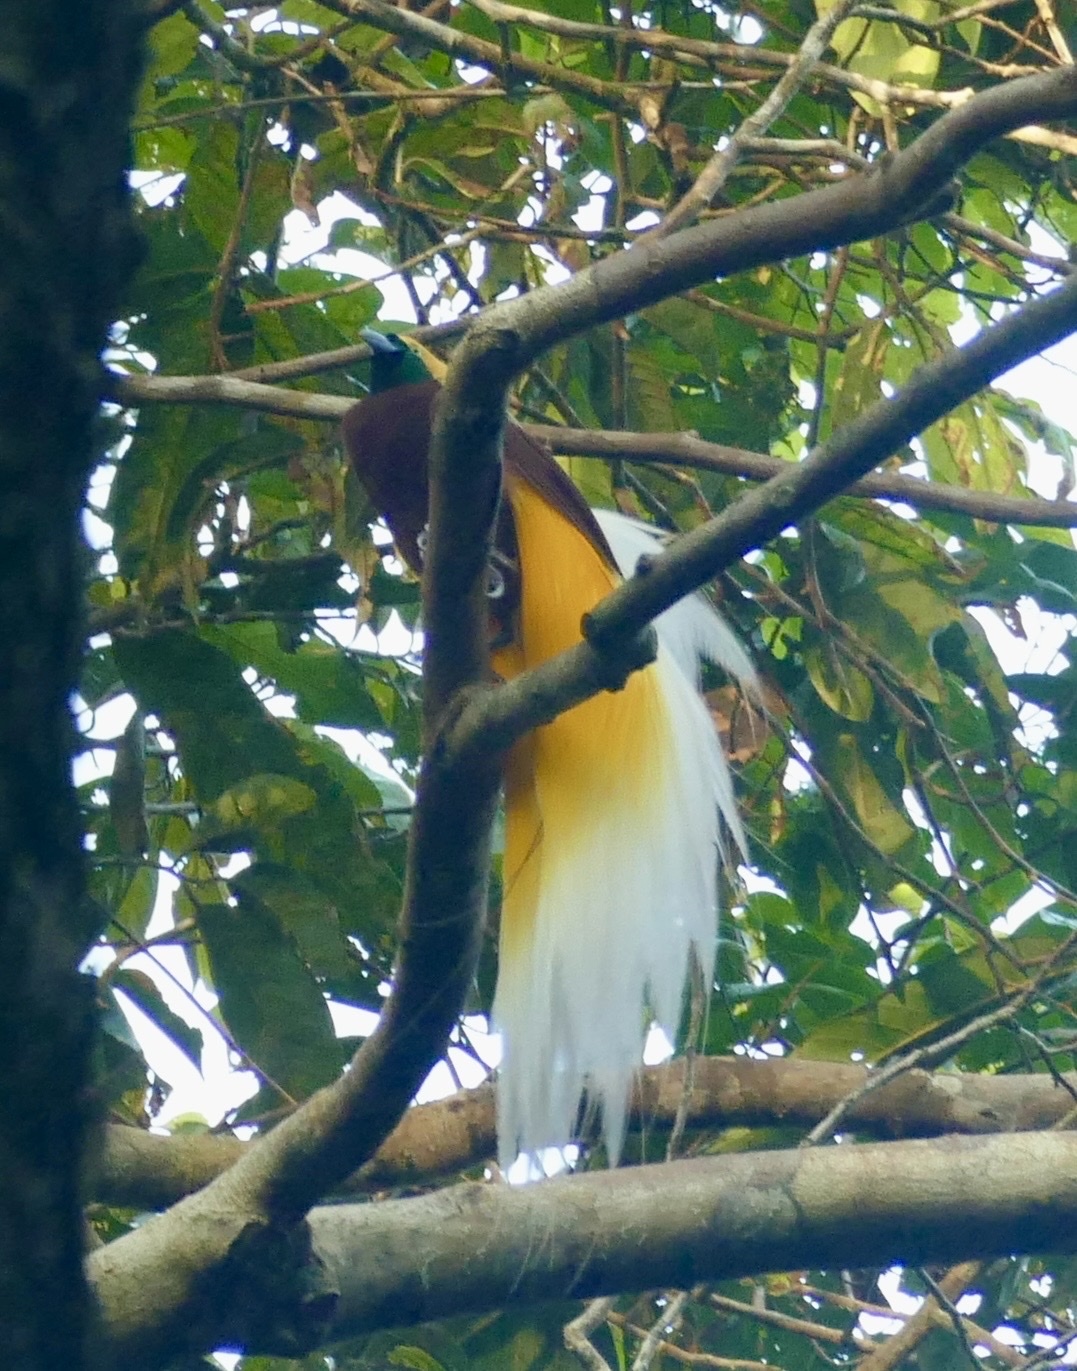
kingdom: Animalia
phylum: Chordata
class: Aves
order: Passeriformes
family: Paradisaeidae
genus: Paradisaea
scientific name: Paradisaea minor
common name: Lesser bird-of-paradise
